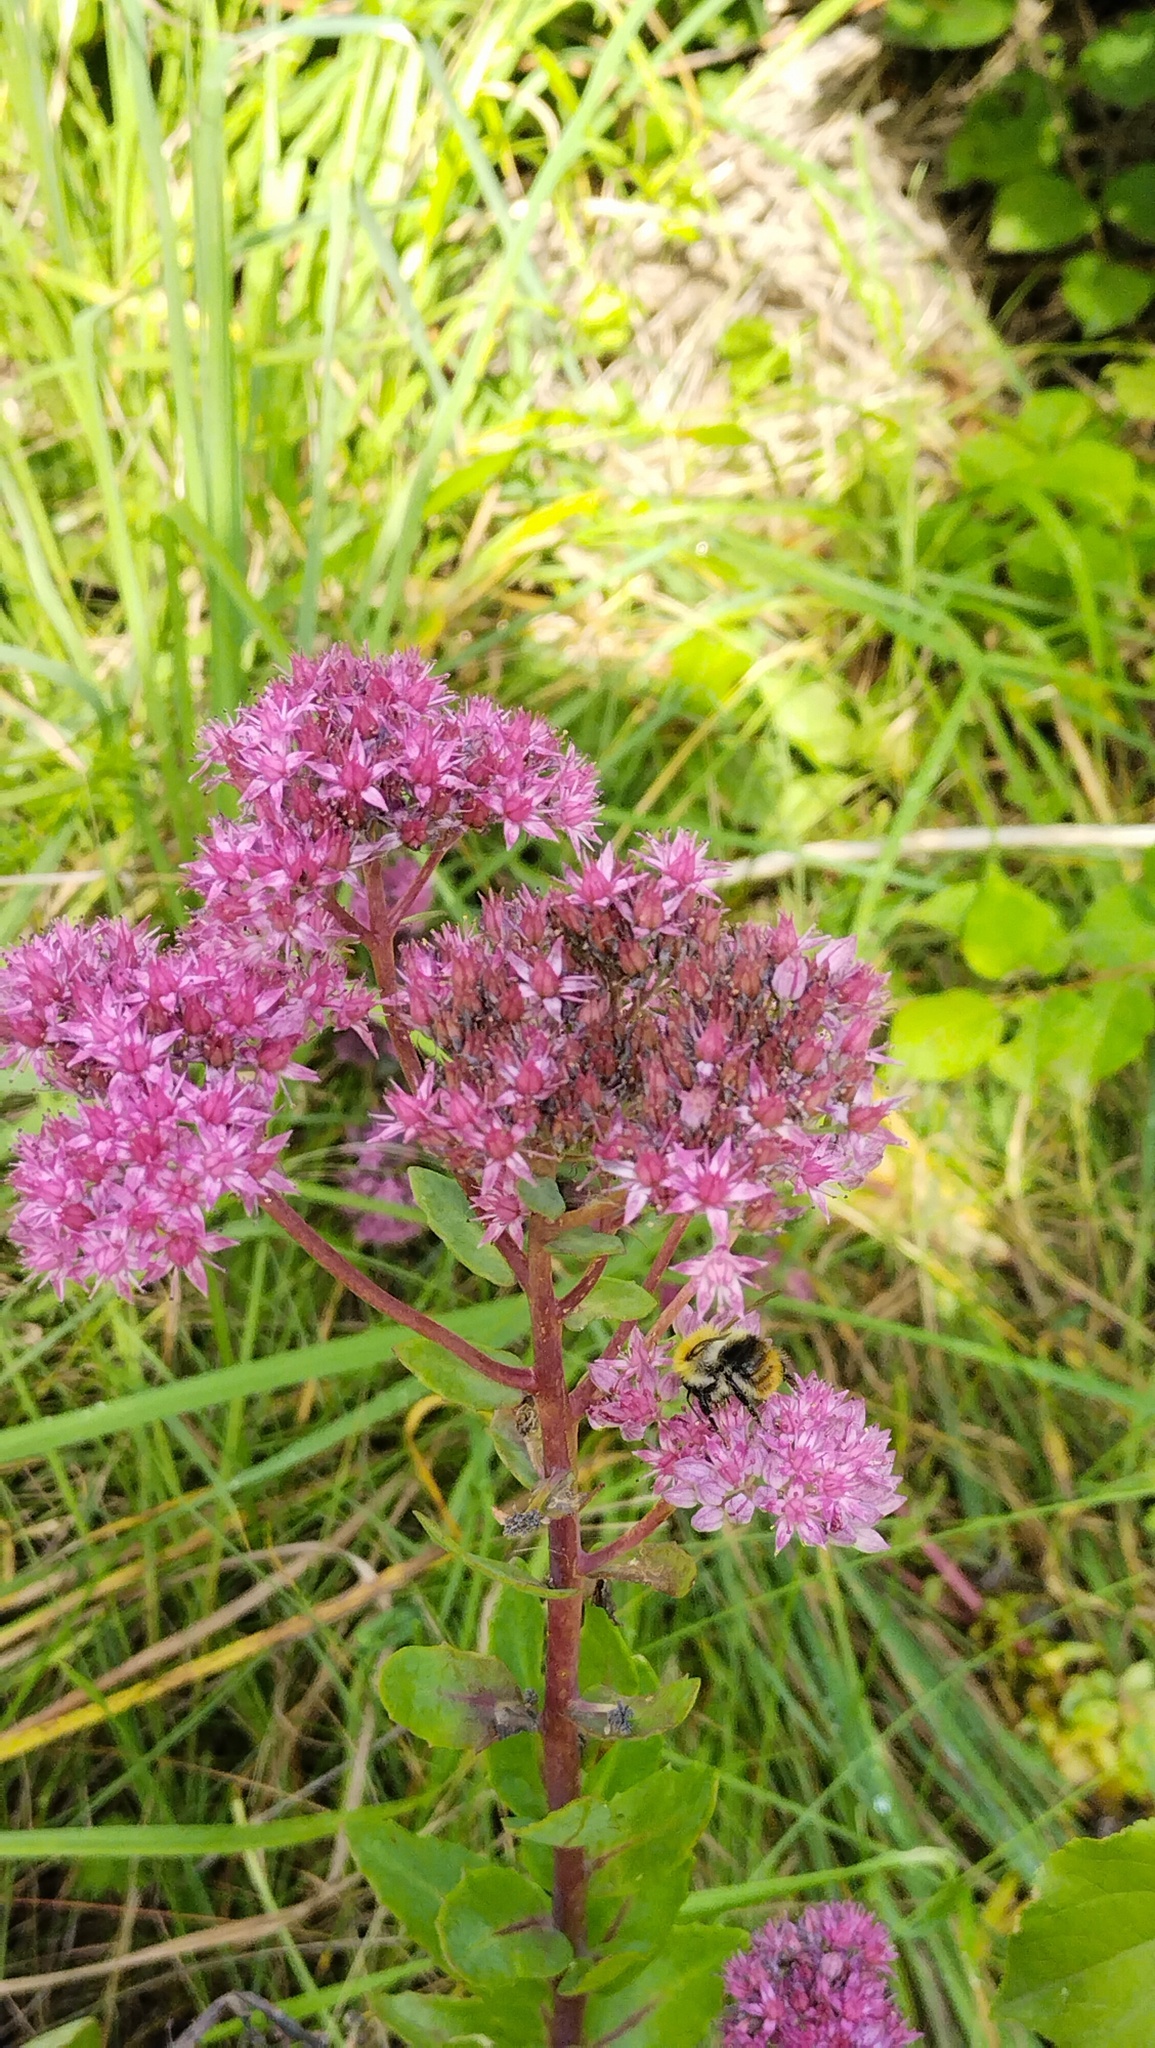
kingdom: Plantae
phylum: Tracheophyta
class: Magnoliopsida
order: Saxifragales
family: Crassulaceae
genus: Hylotelephium
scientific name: Hylotelephium telephium
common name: Live-forever
